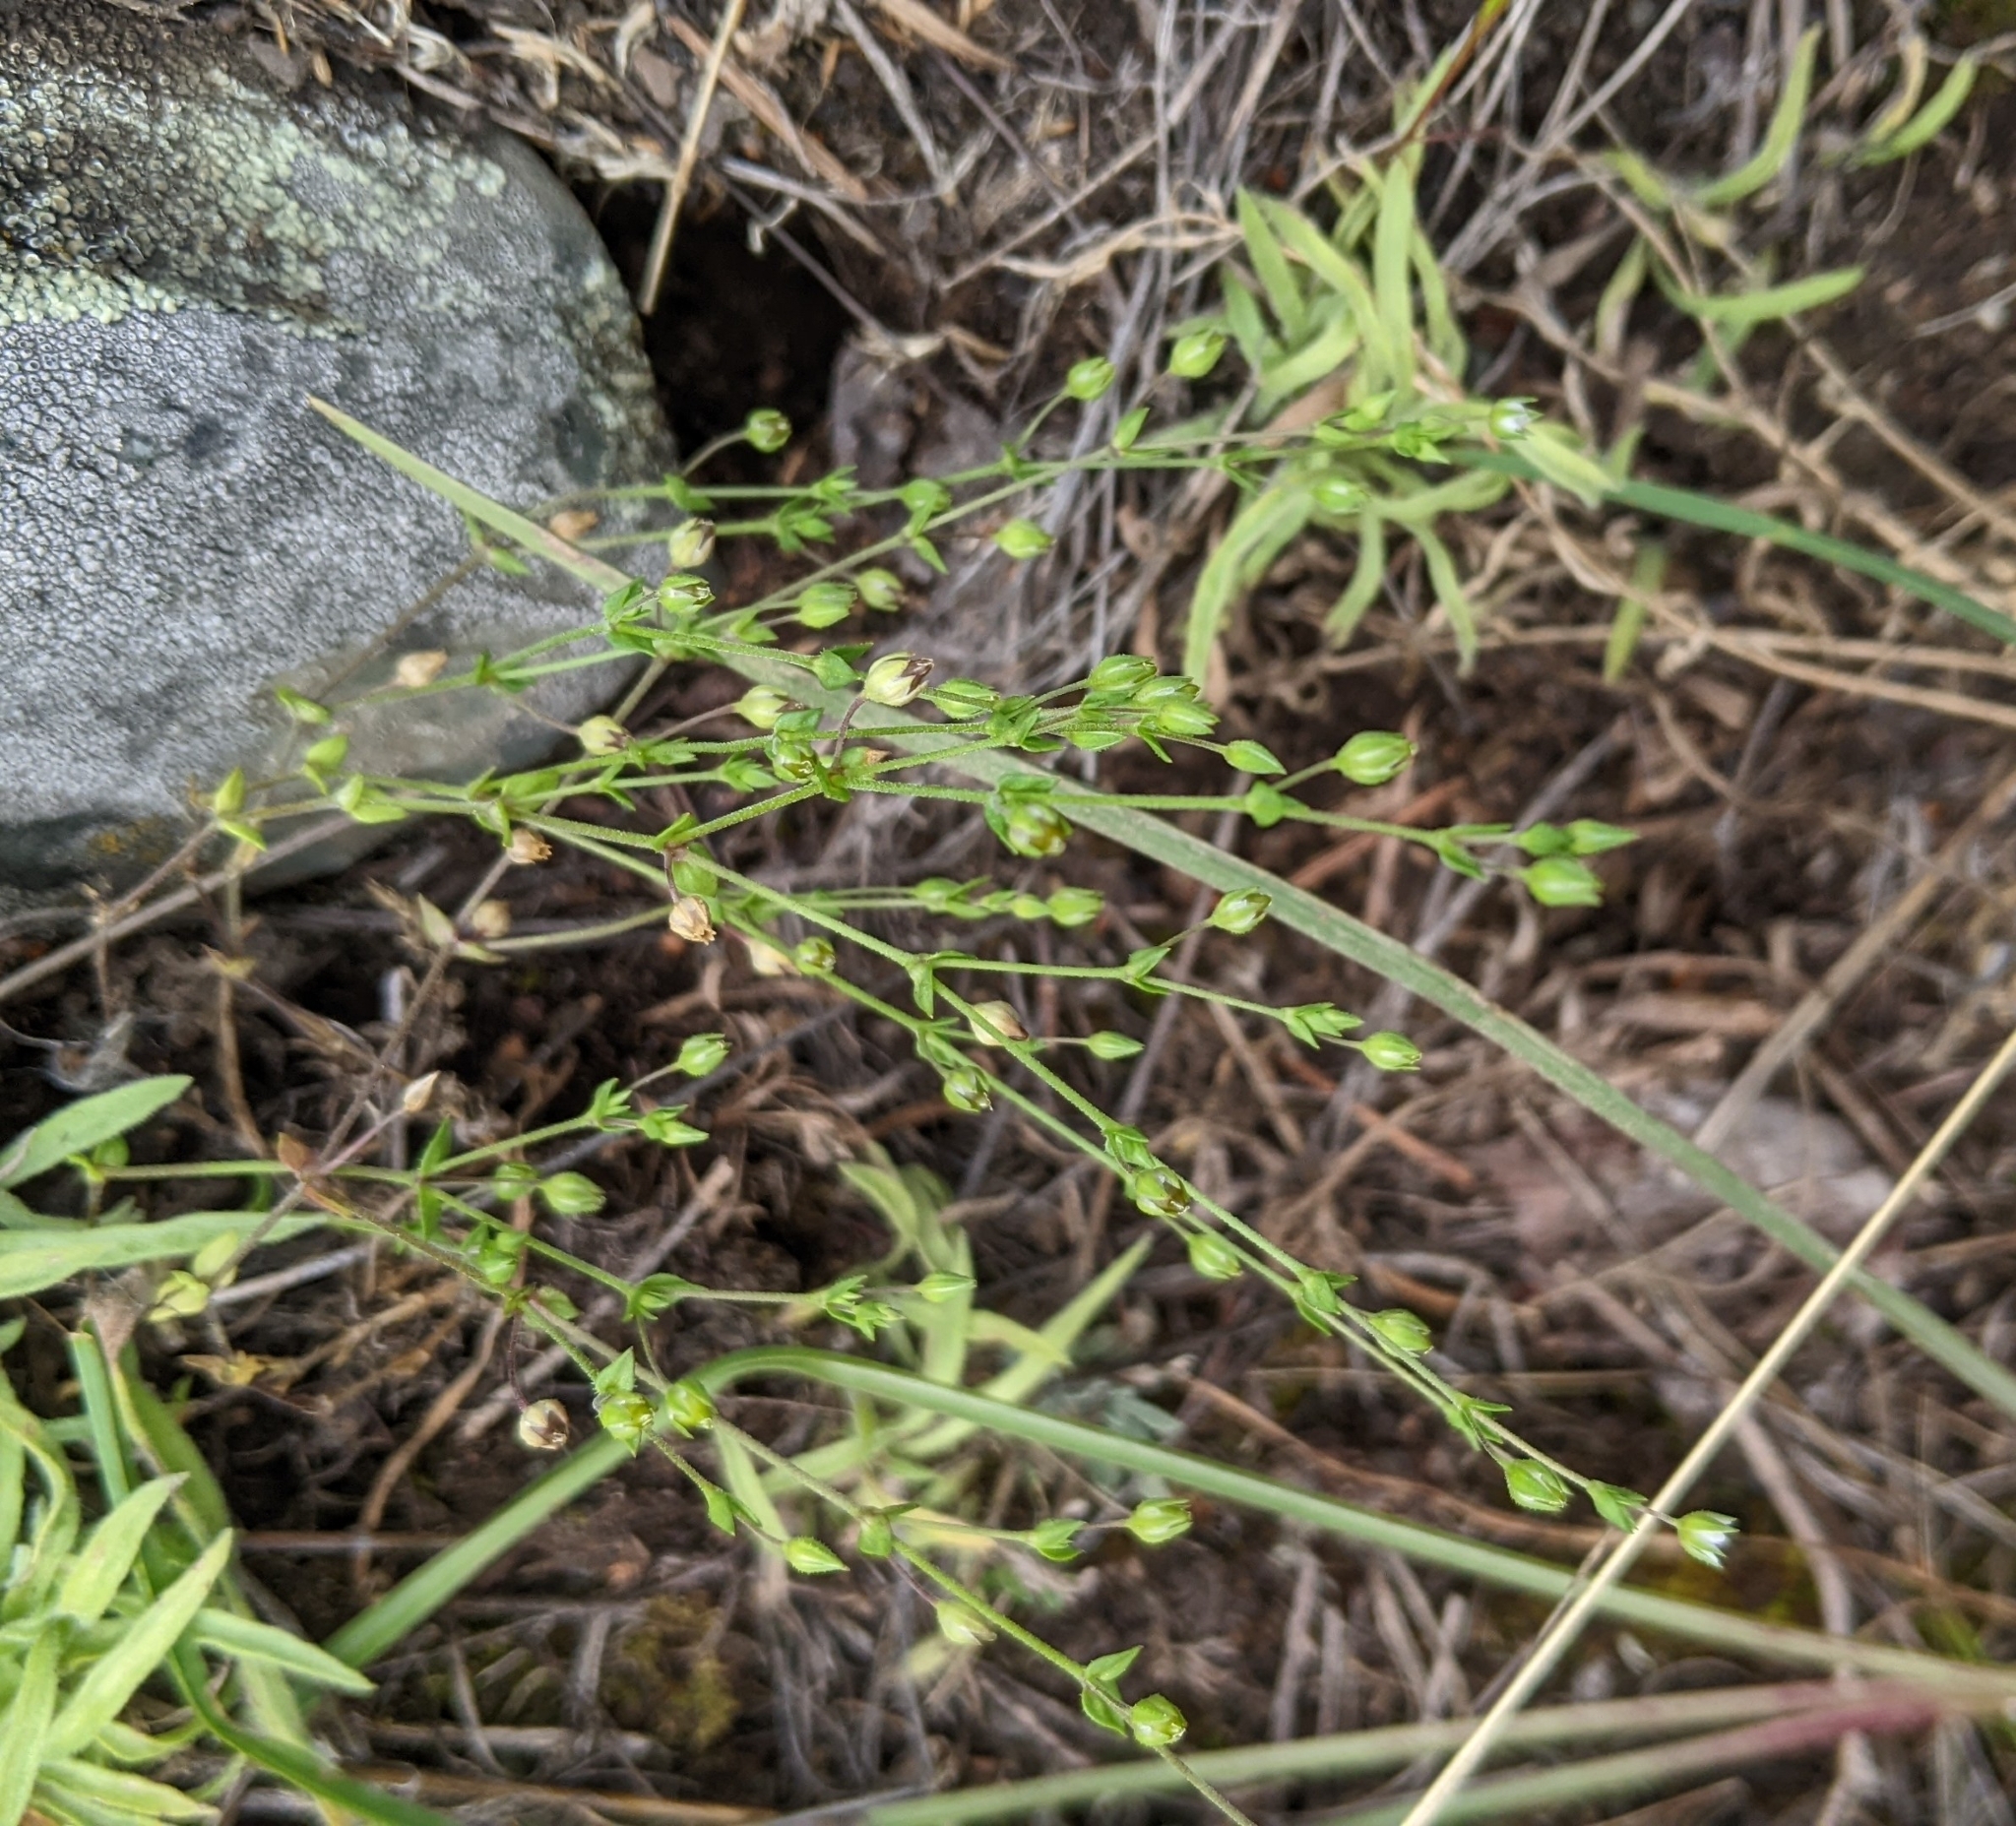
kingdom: Plantae
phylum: Tracheophyta
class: Magnoliopsida
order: Caryophyllales
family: Caryophyllaceae
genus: Arenaria
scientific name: Arenaria serpyllifolia
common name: Thyme-leaved sandwort
